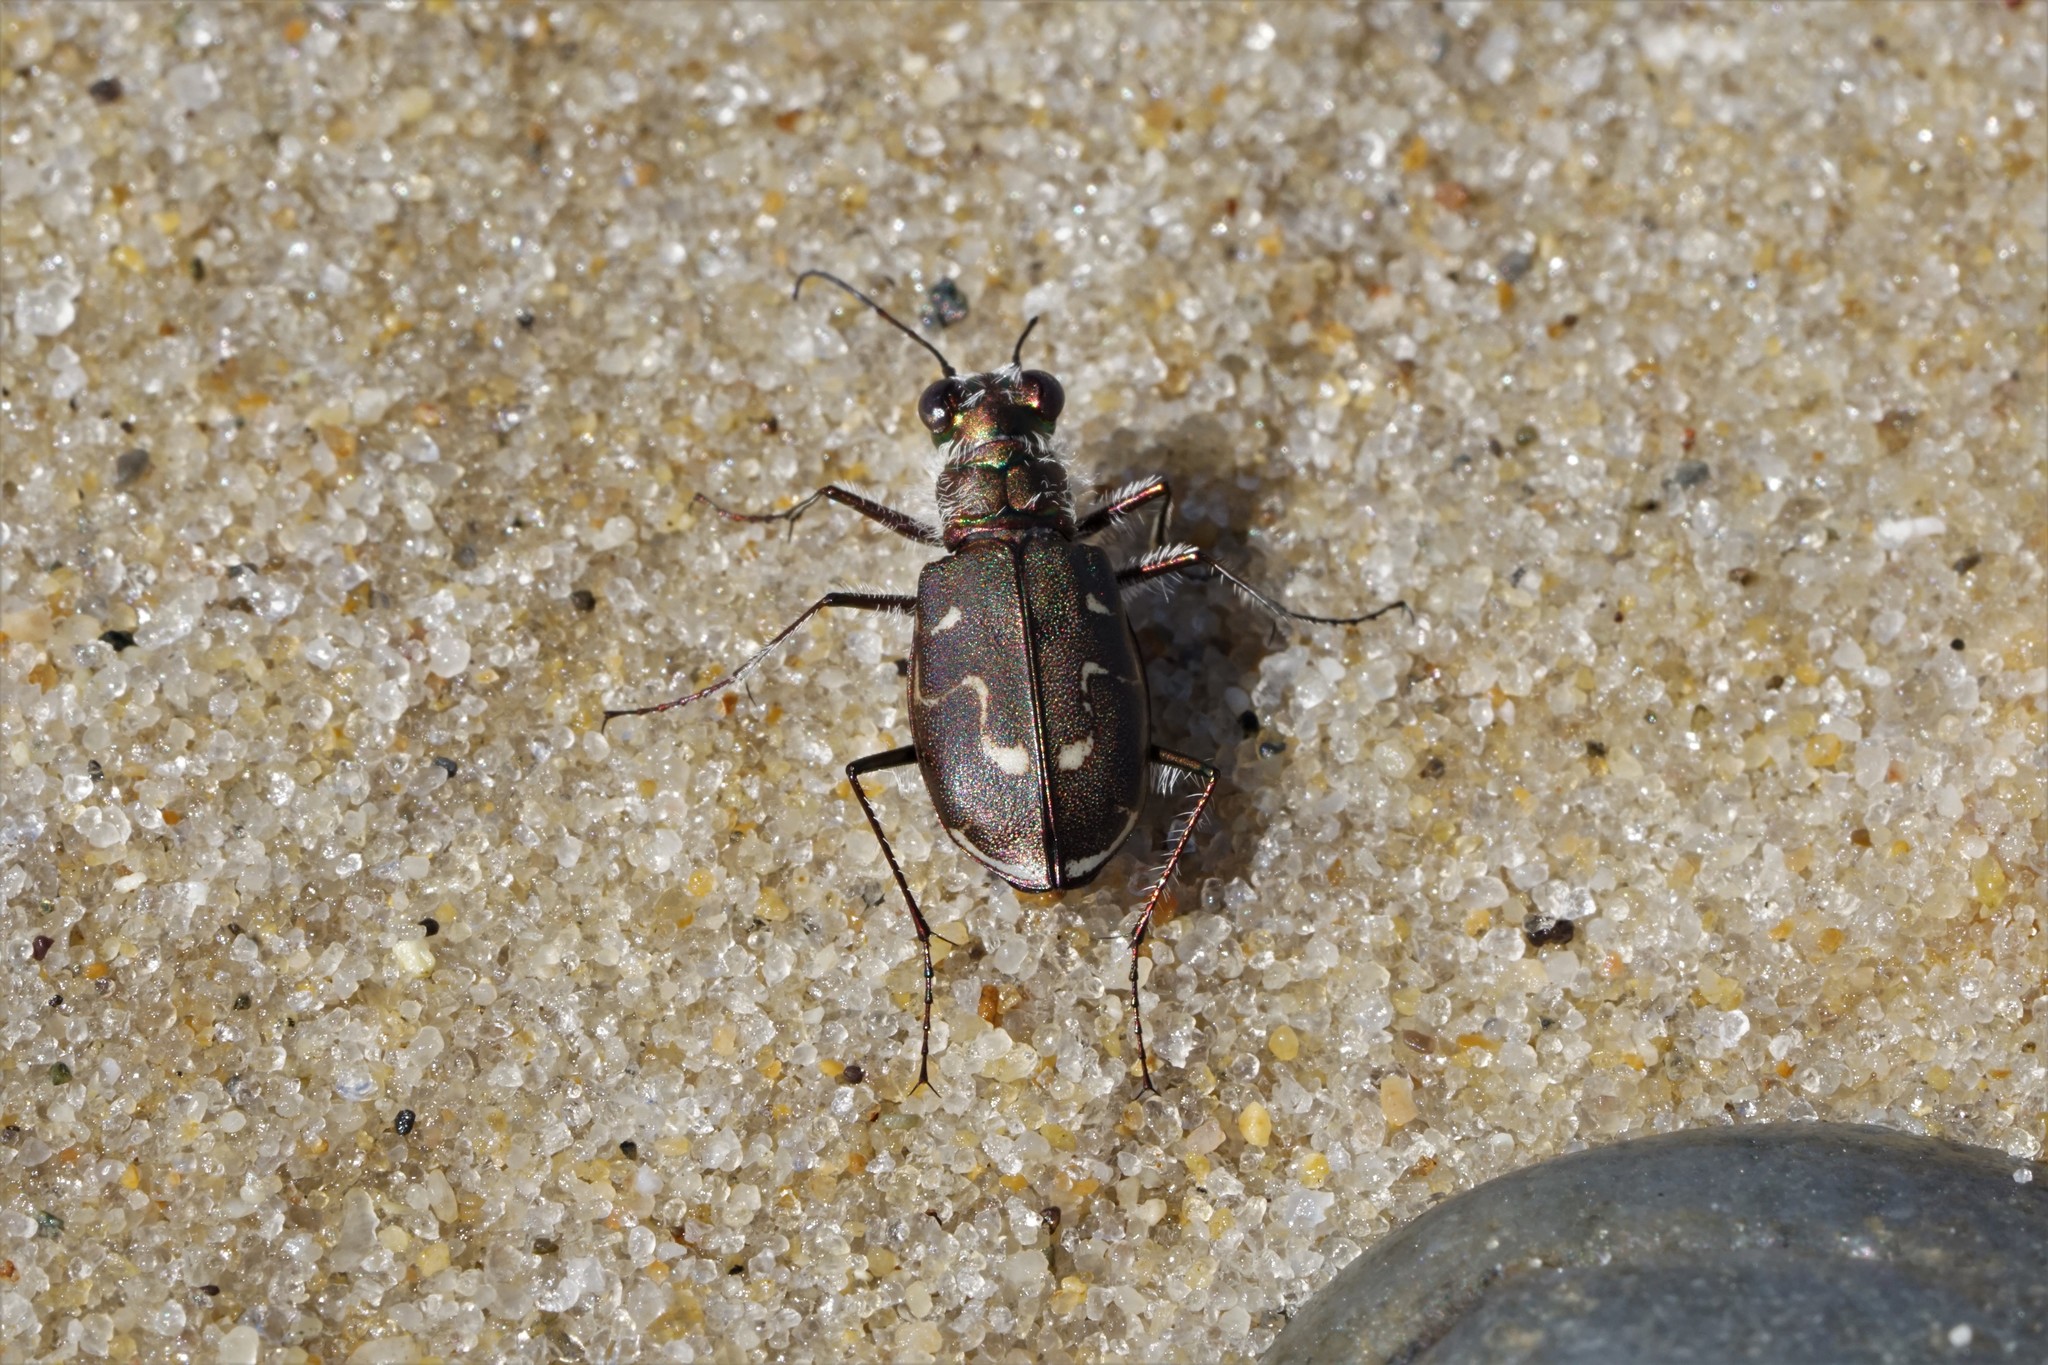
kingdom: Animalia
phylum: Arthropoda
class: Insecta
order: Coleoptera
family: Carabidae
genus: Cicindela
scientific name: Cicindela hirticollis
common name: Hairy-necked tiger beetle
